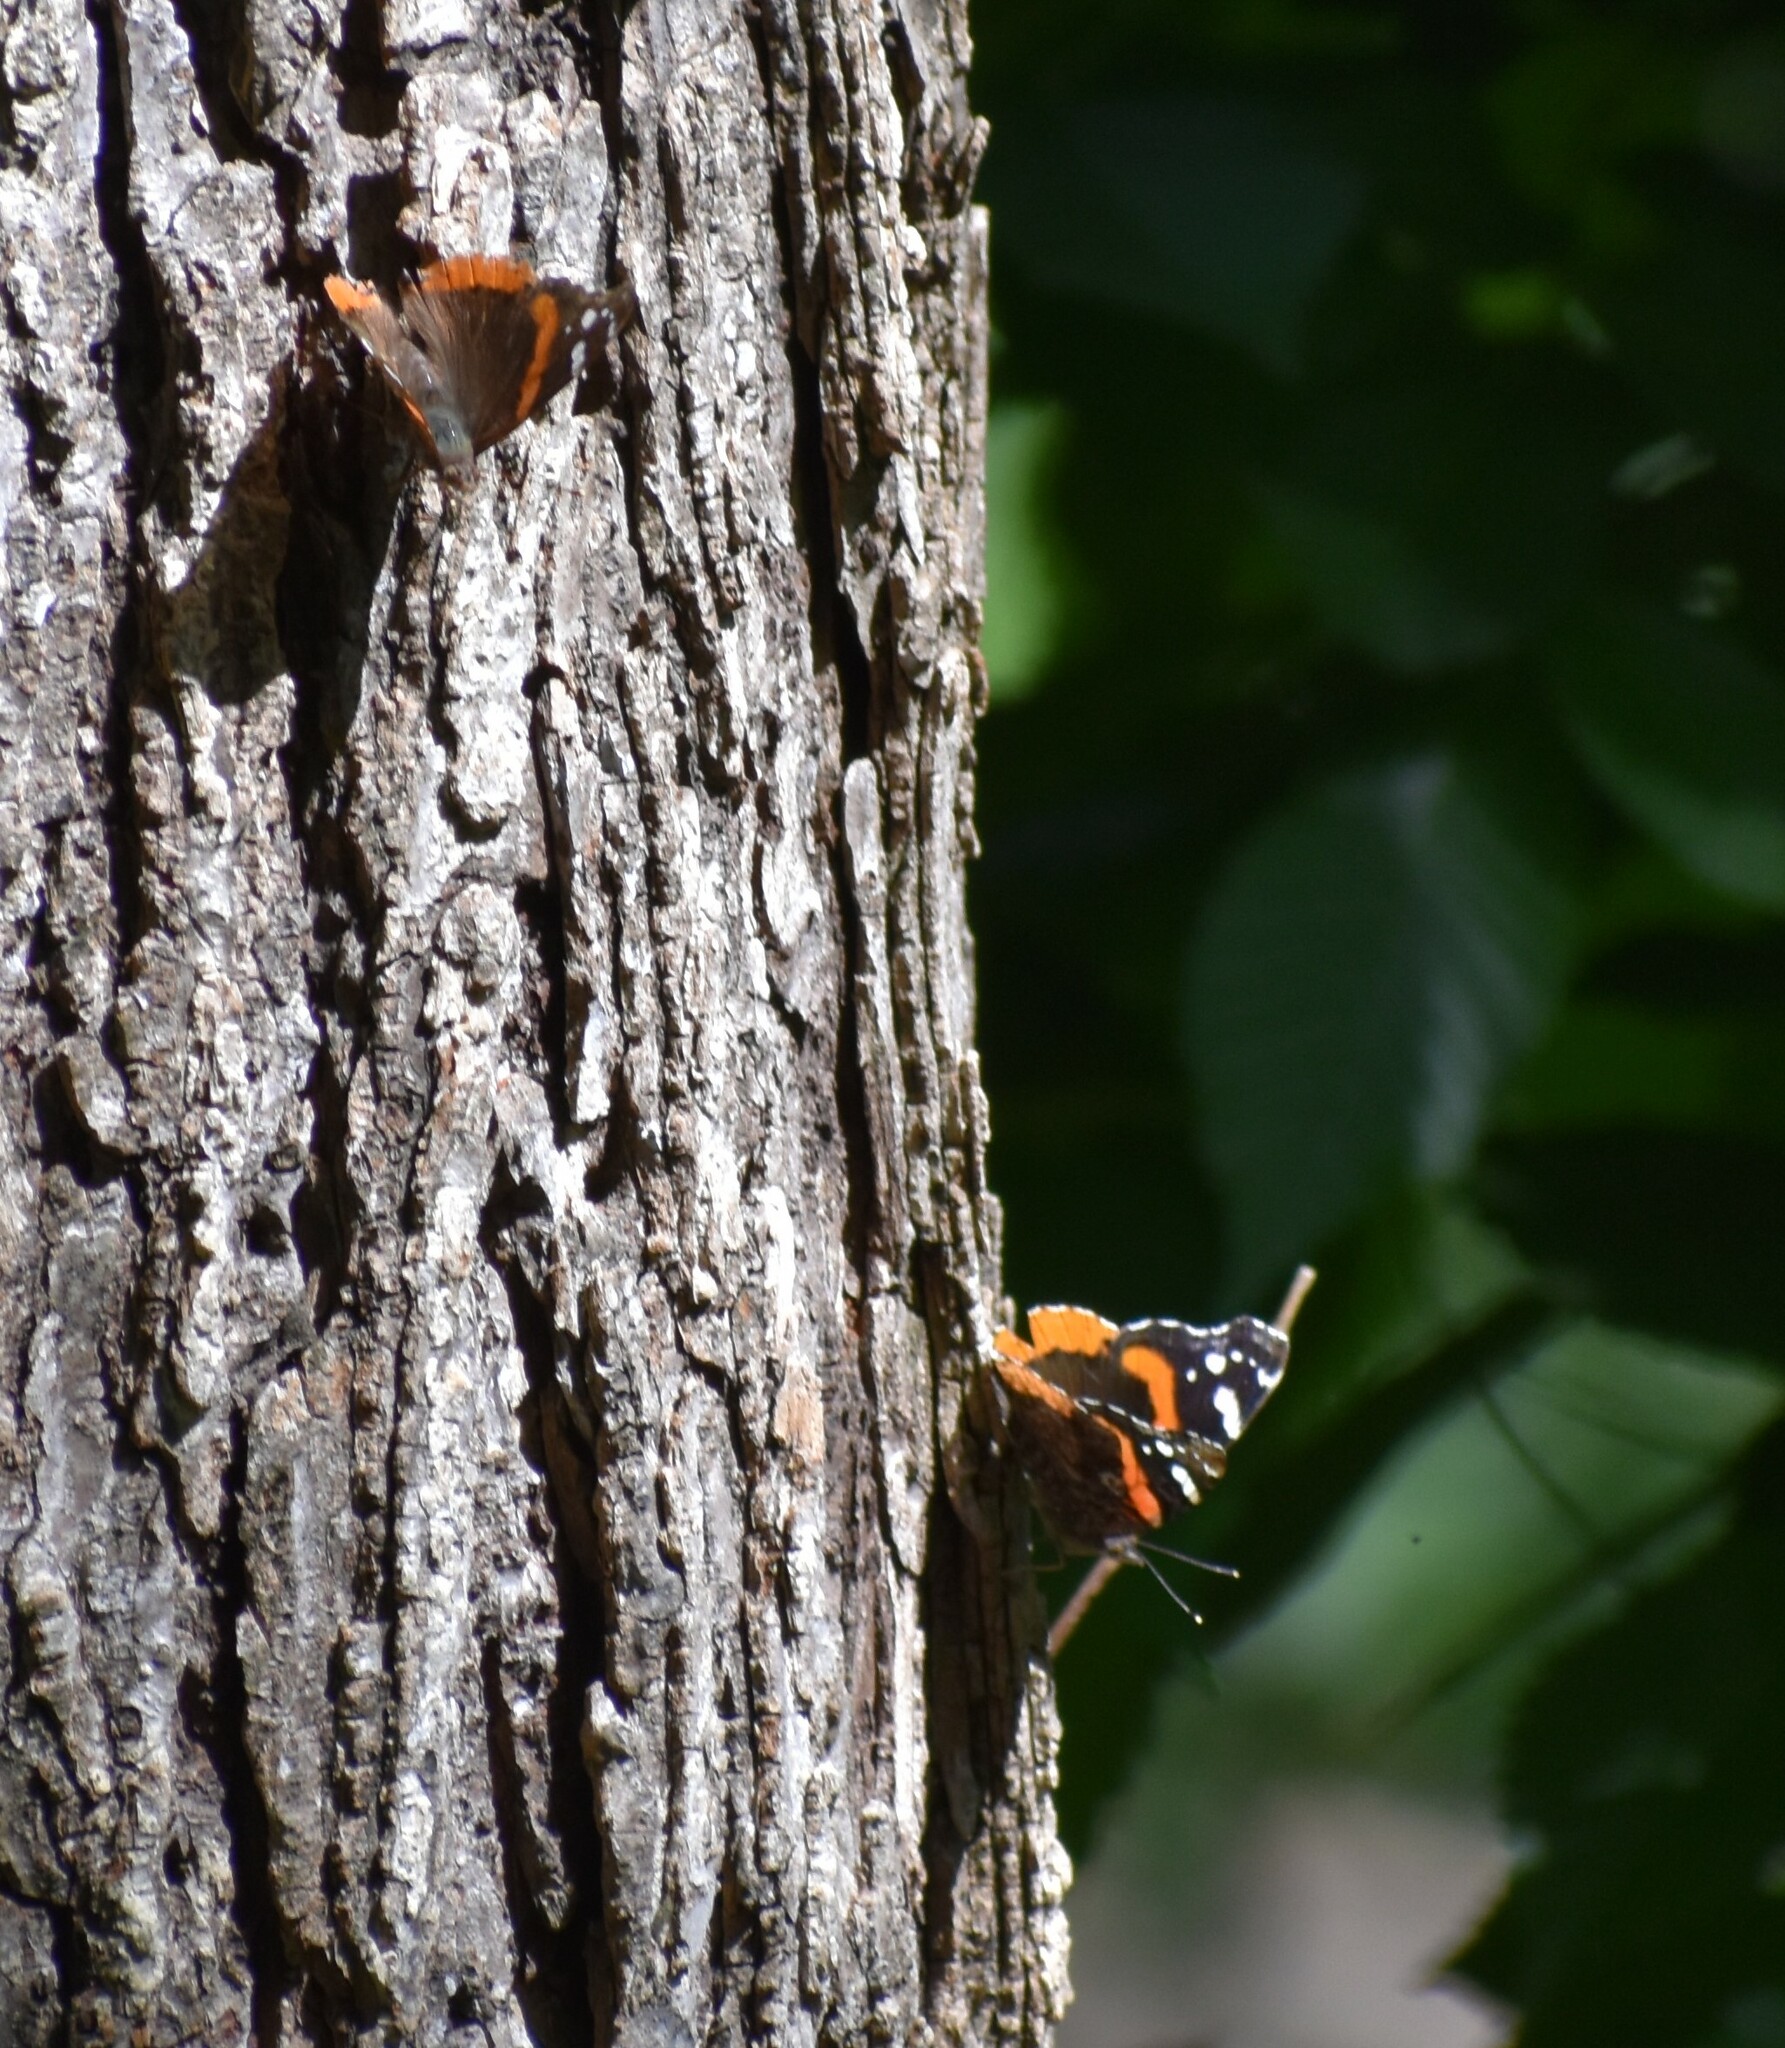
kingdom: Animalia
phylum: Arthropoda
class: Insecta
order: Lepidoptera
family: Nymphalidae
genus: Vanessa
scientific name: Vanessa atalanta
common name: Red admiral
